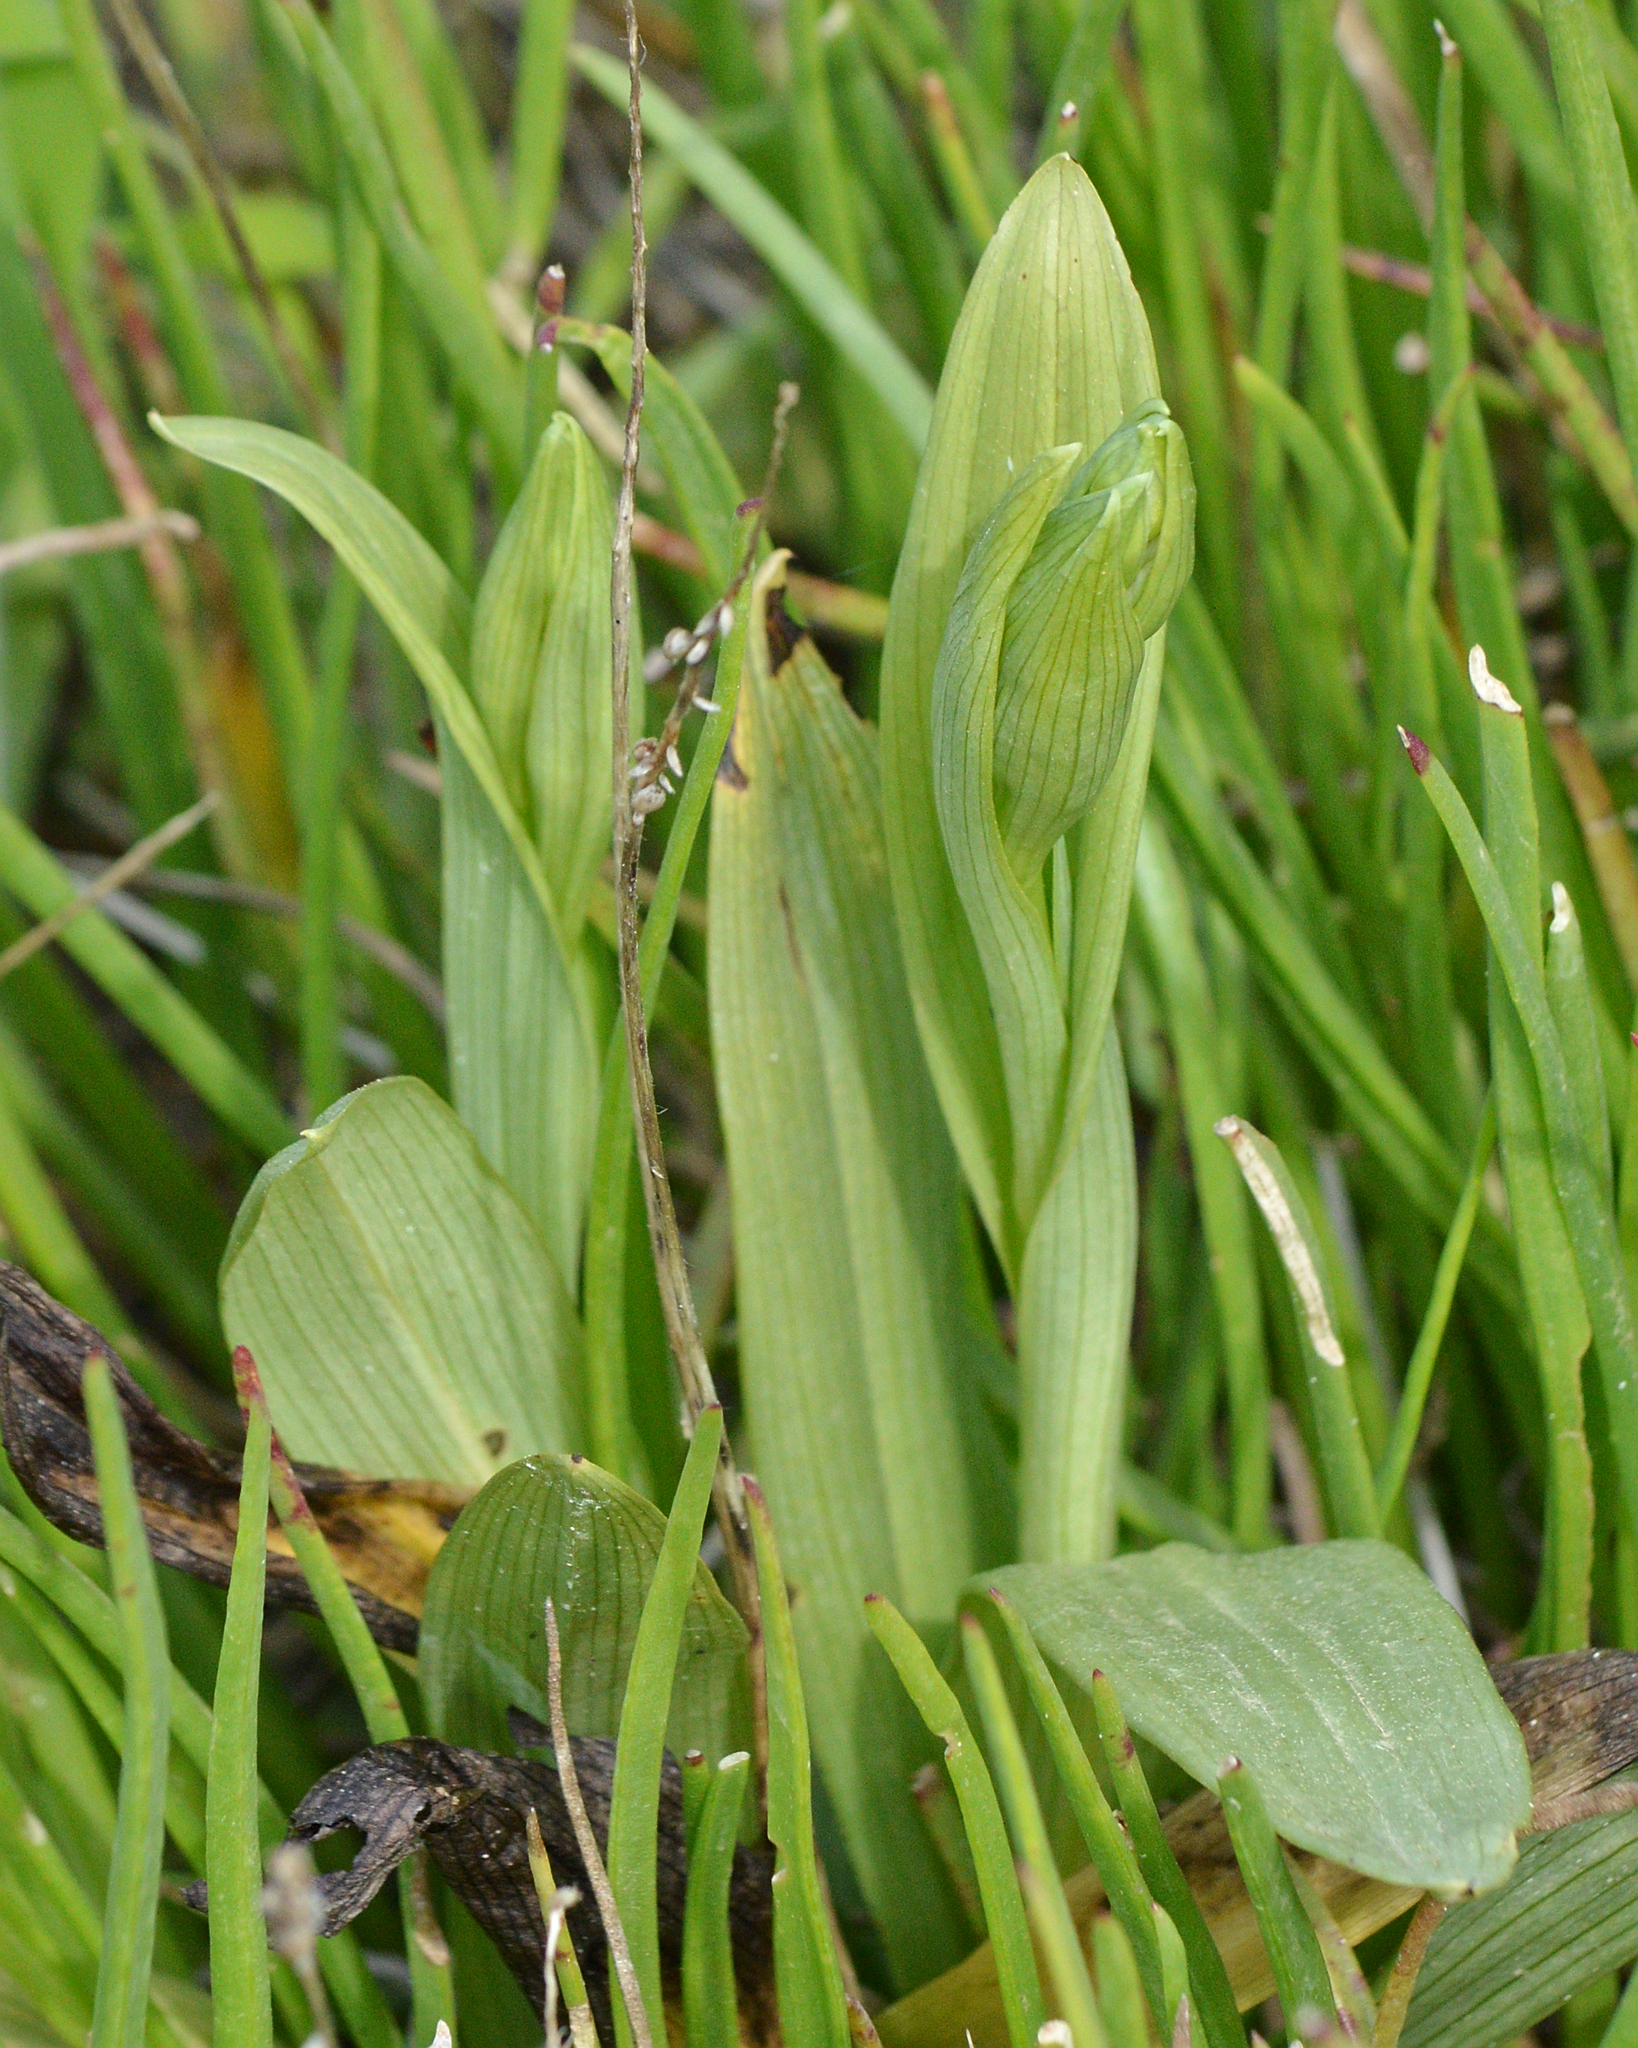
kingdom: Plantae
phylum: Tracheophyta
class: Liliopsida
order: Asparagales
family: Orchidaceae
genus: Ophrys
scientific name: Ophrys apifera
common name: Bee orchid
